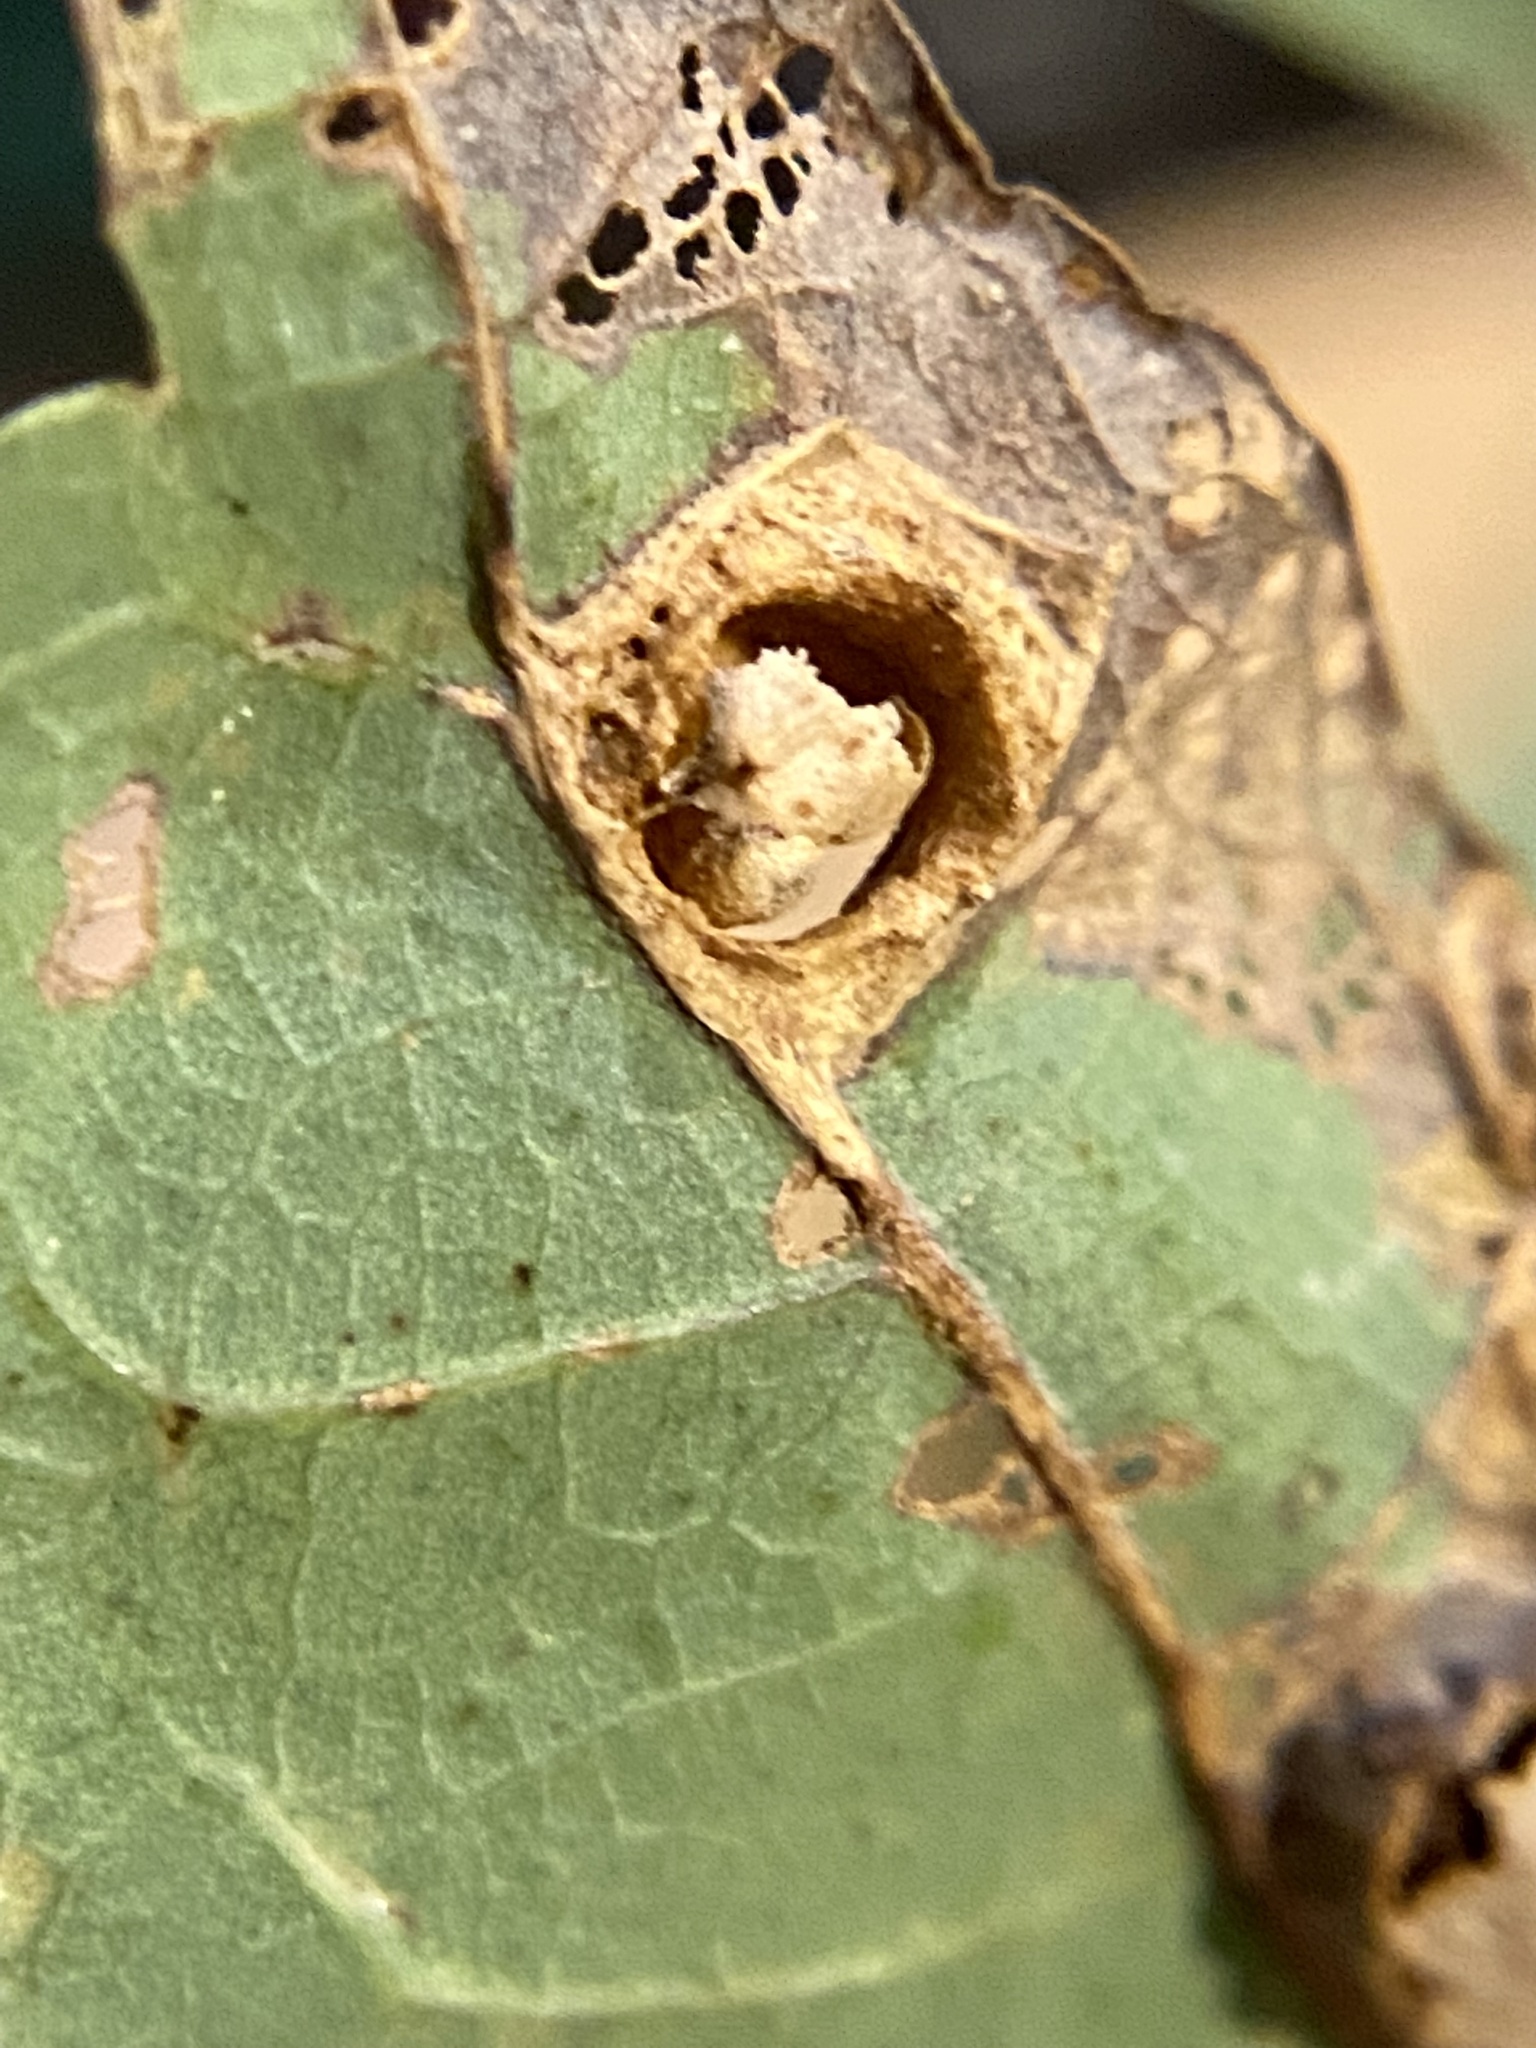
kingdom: Animalia
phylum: Arthropoda
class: Insecta
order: Hymenoptera
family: Cynipidae
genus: Callirhytis
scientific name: Callirhytis
